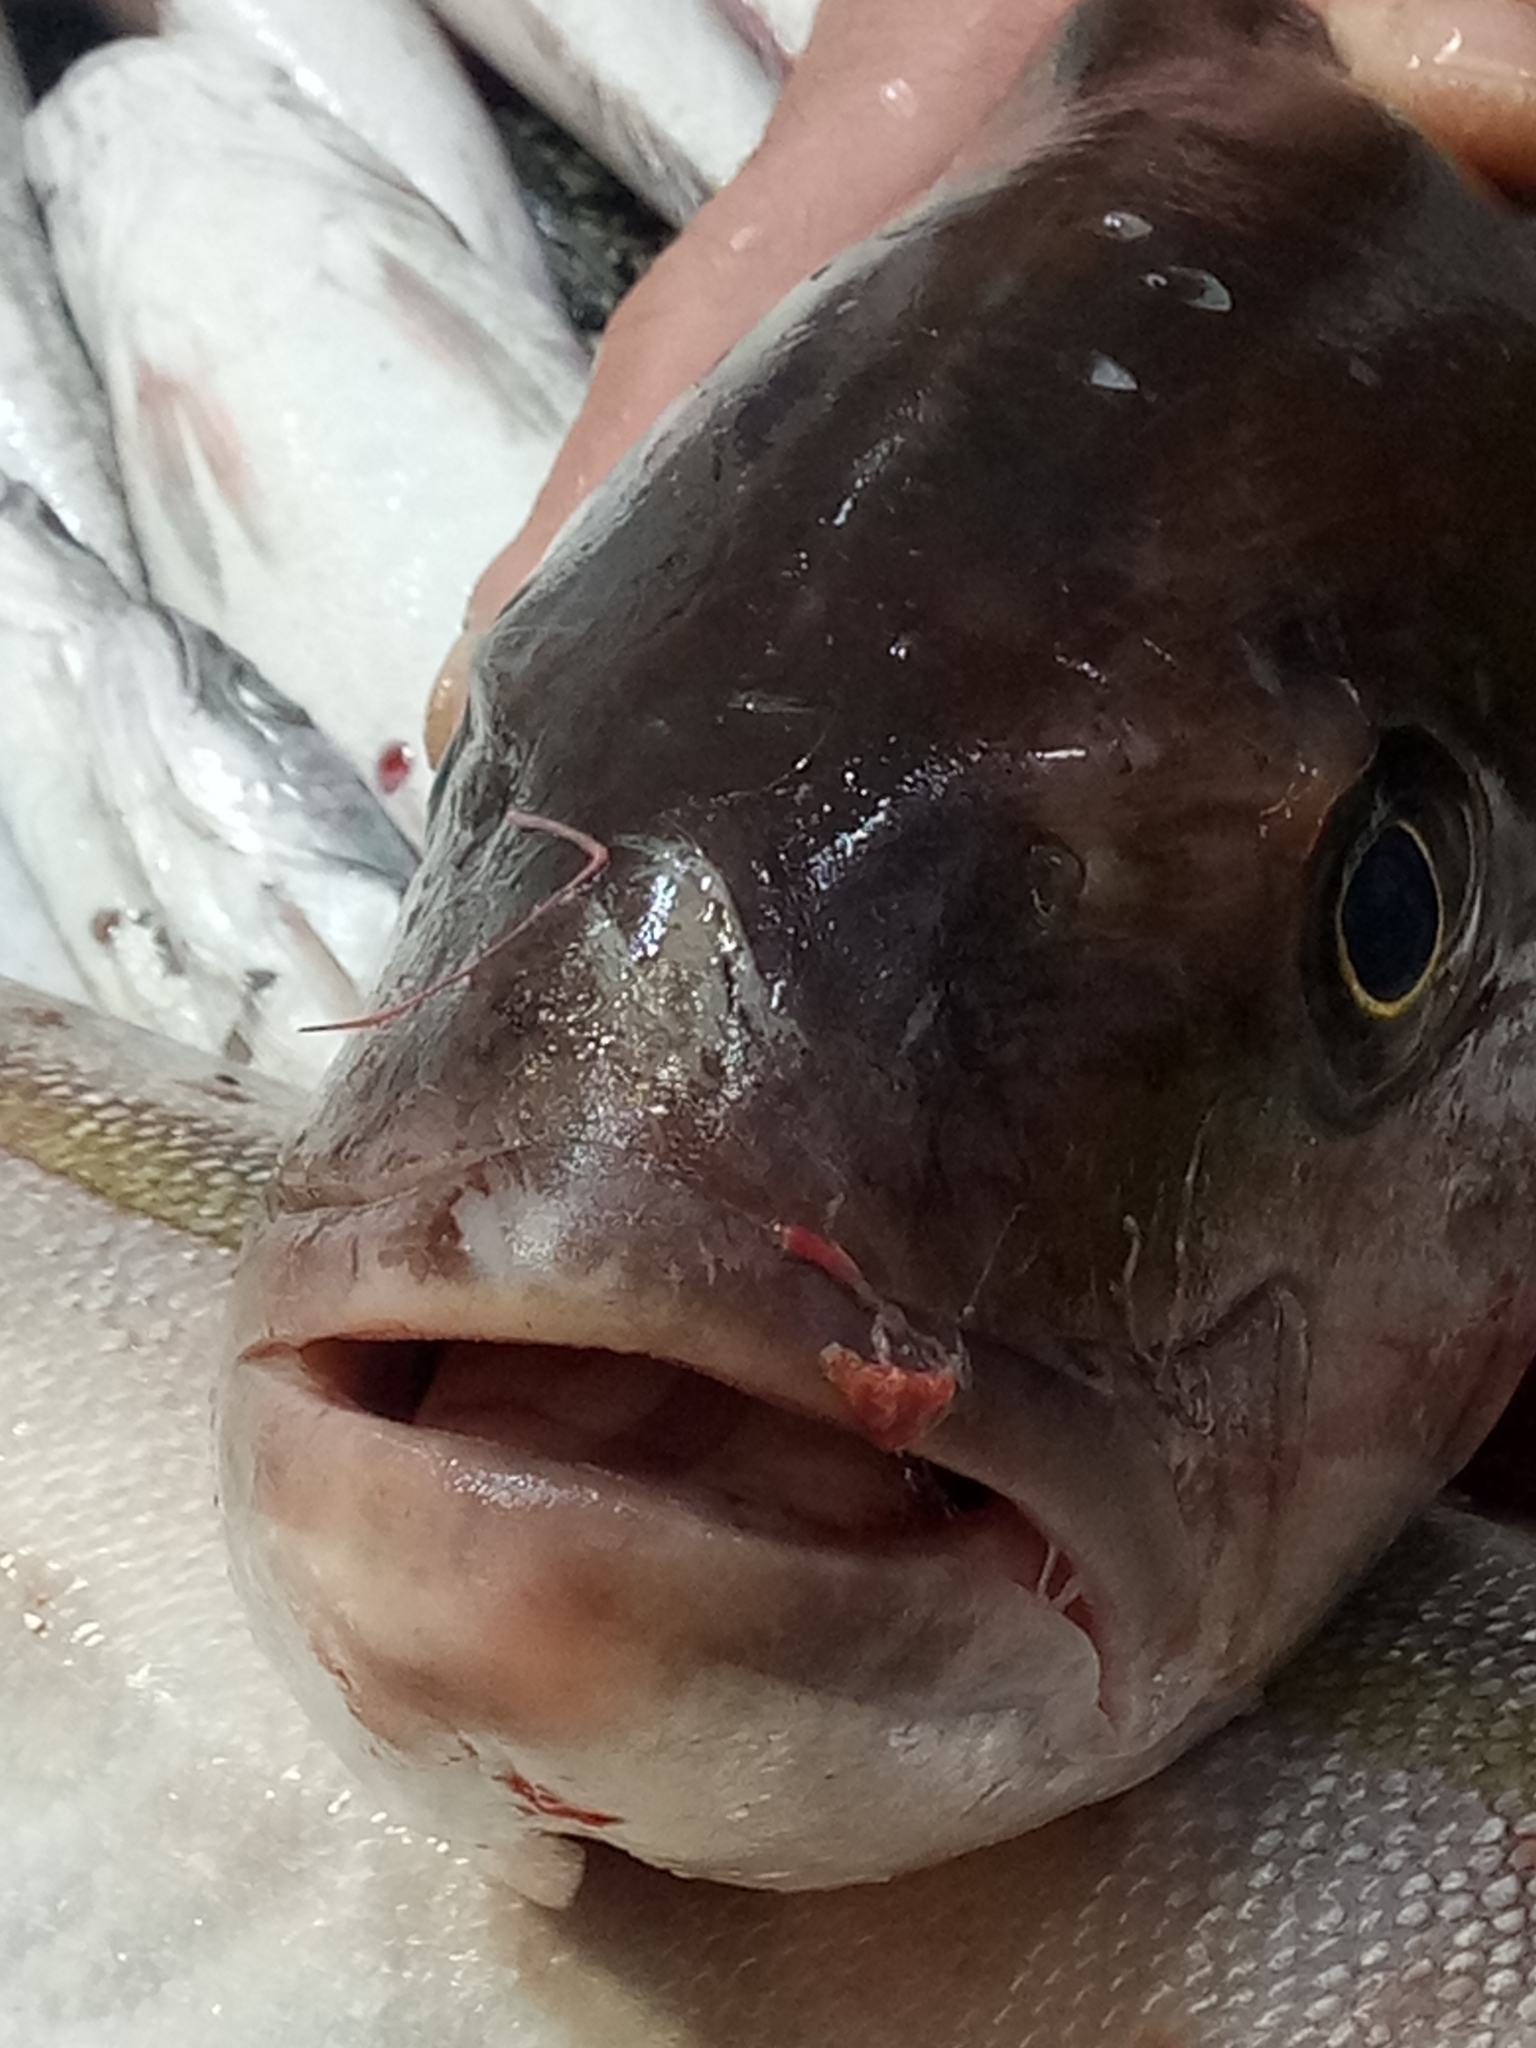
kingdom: Animalia
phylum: Chordata
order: Perciformes
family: Carangidae
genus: Seriola
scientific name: Seriola dumerili
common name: Greater amberjack
